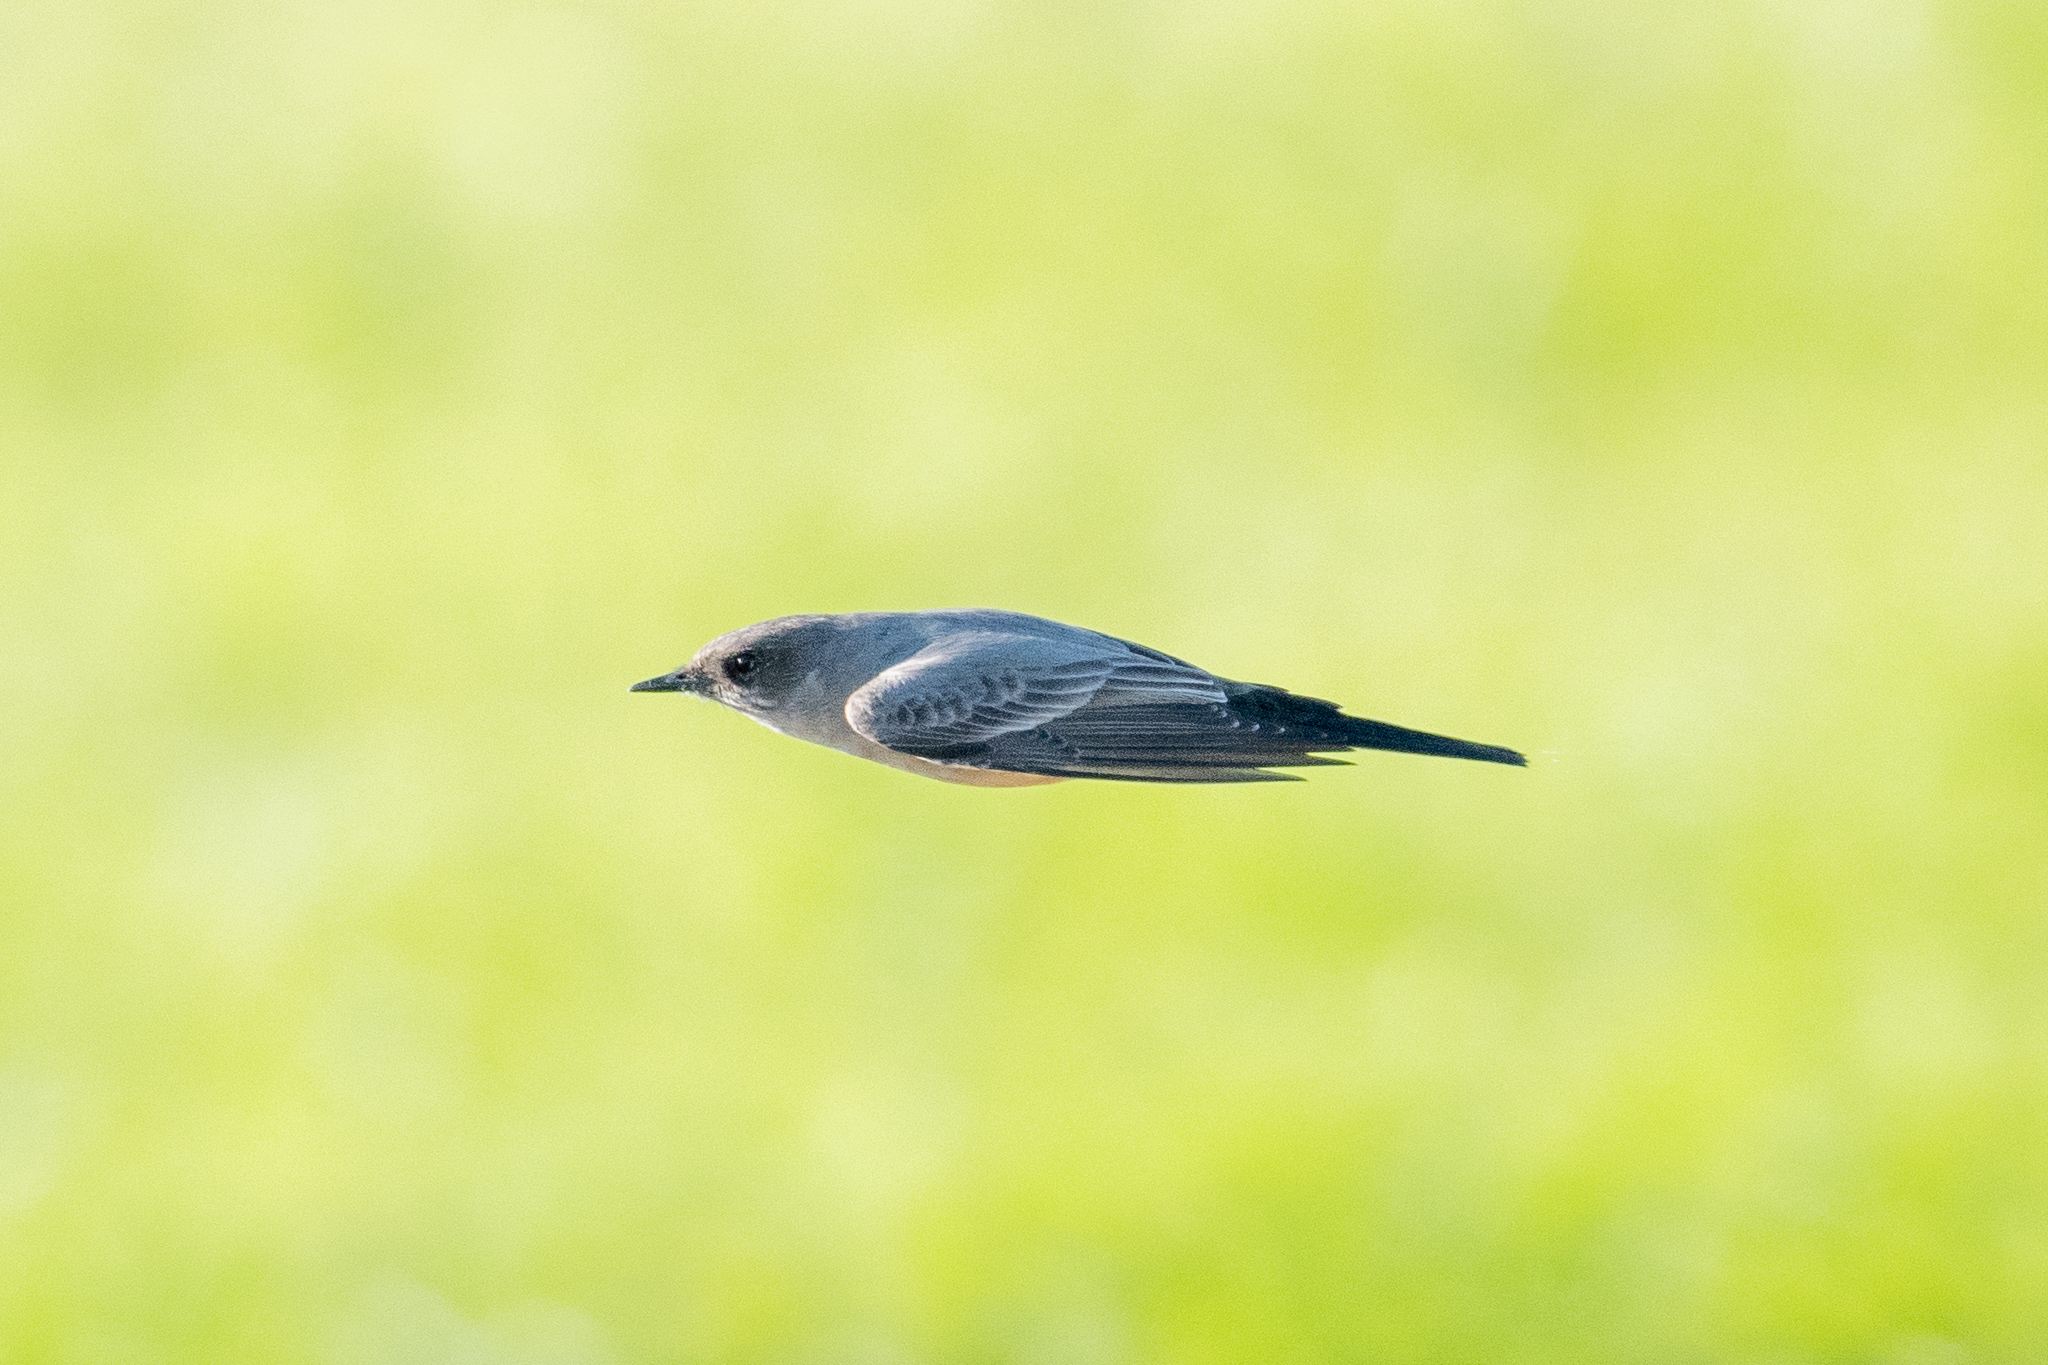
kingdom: Animalia
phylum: Chordata
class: Aves
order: Passeriformes
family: Tyrannidae
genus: Sayornis
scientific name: Sayornis saya
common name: Say's phoebe
